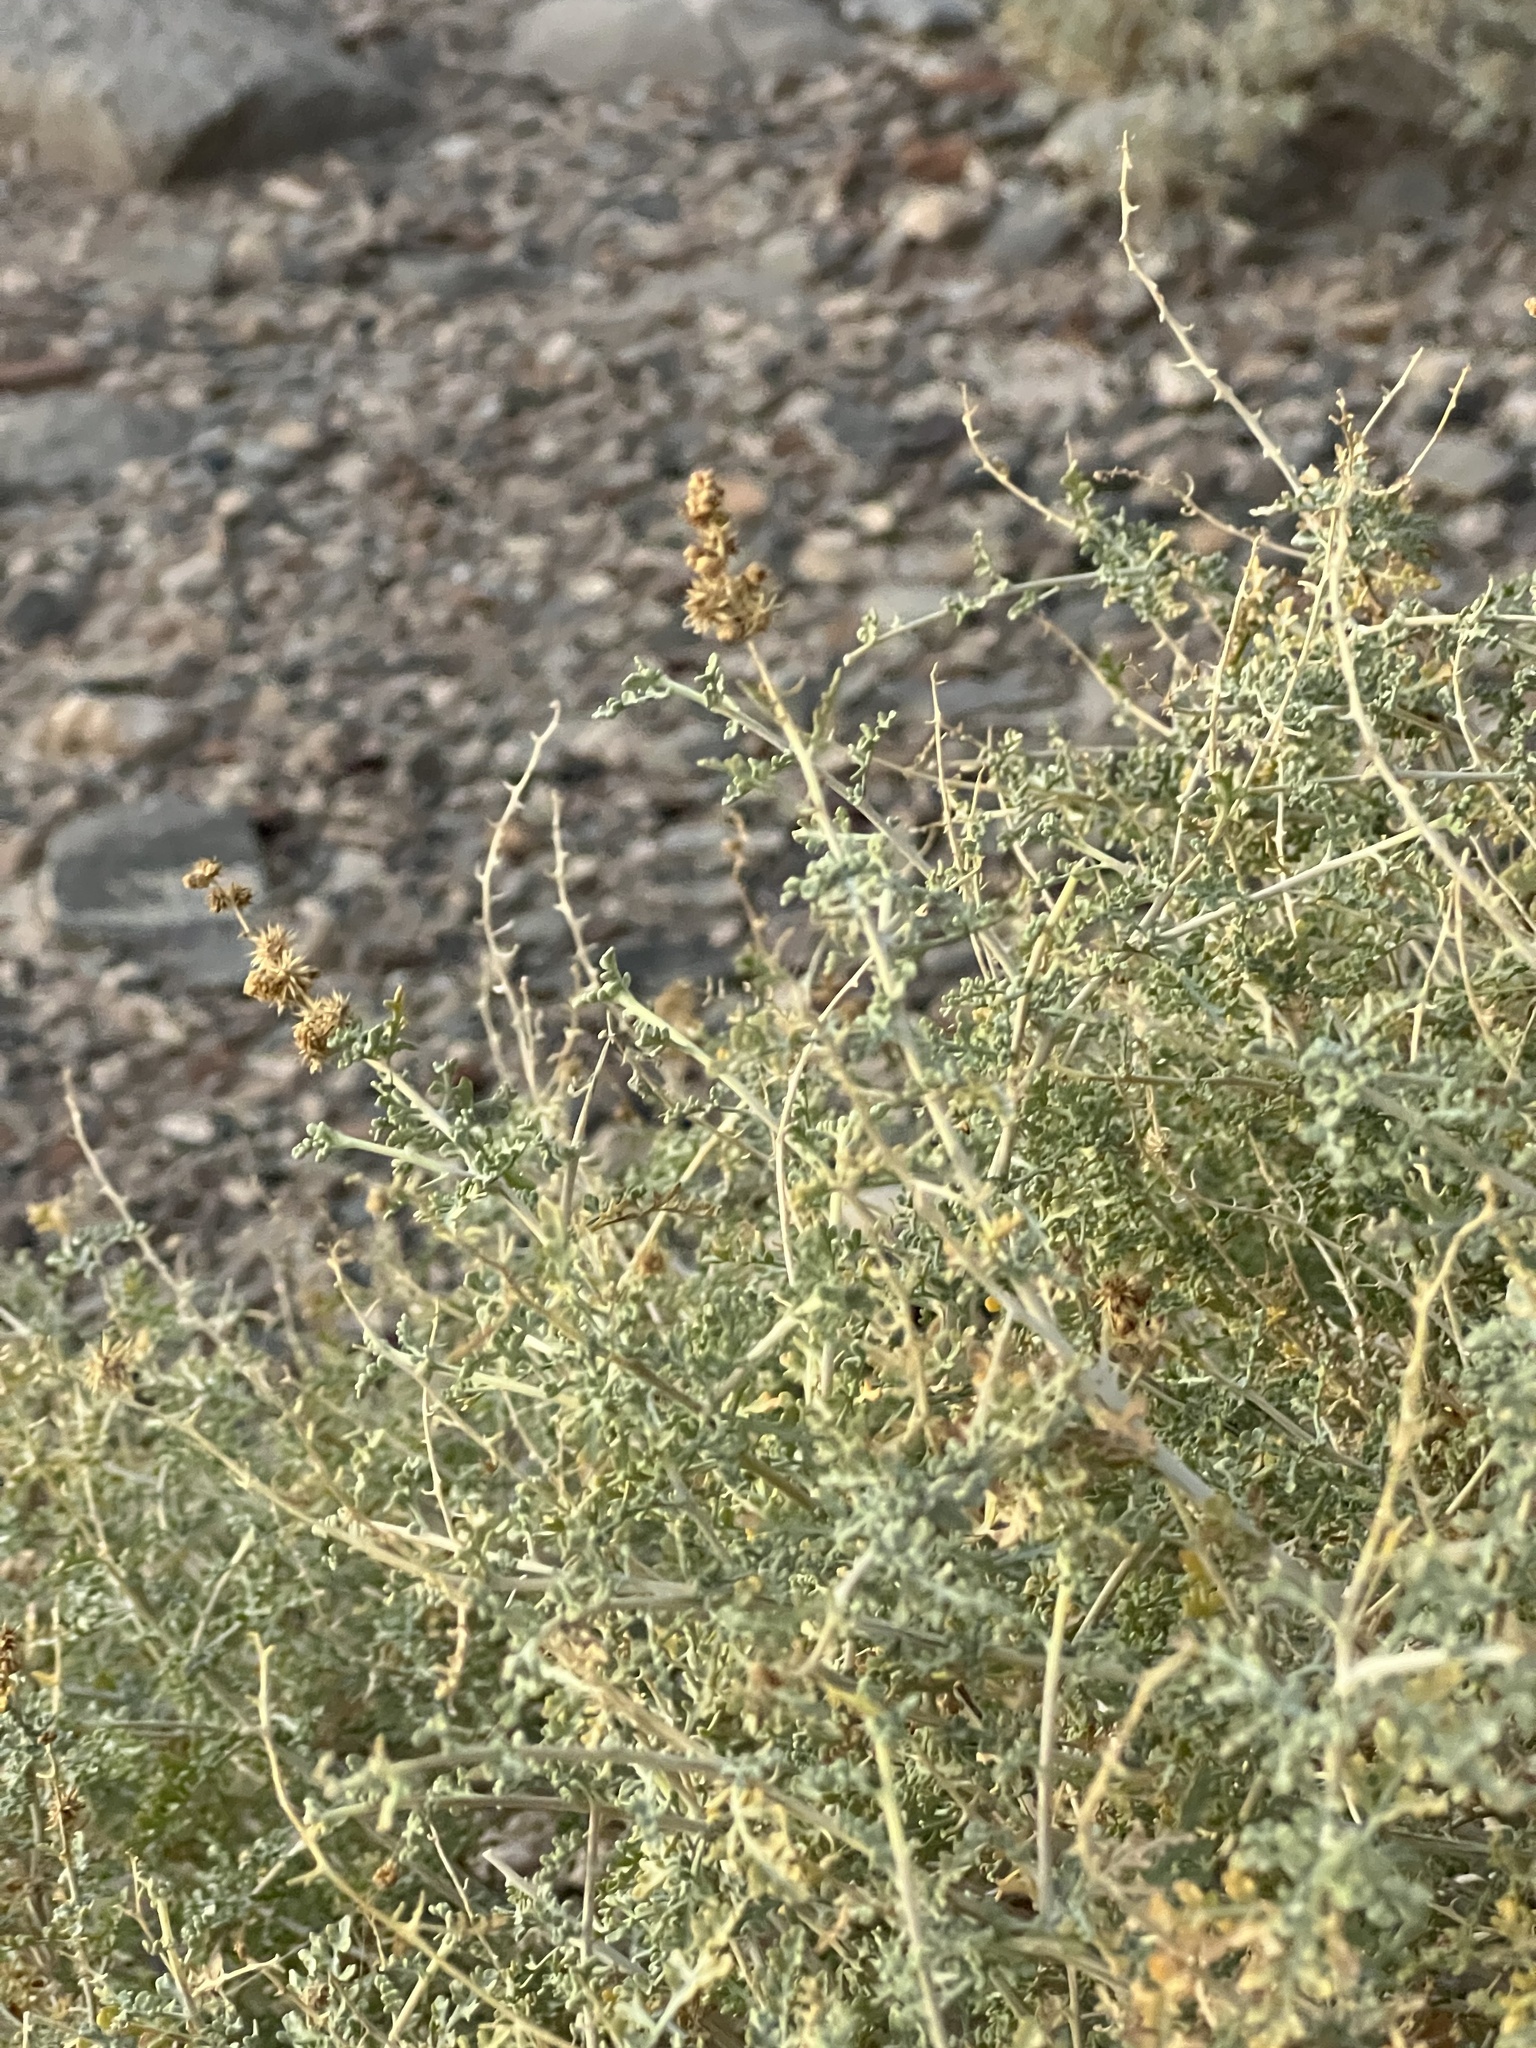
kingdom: Plantae
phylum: Tracheophyta
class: Magnoliopsida
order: Asterales
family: Asteraceae
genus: Ambrosia
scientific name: Ambrosia dumosa
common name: Bur-sage
